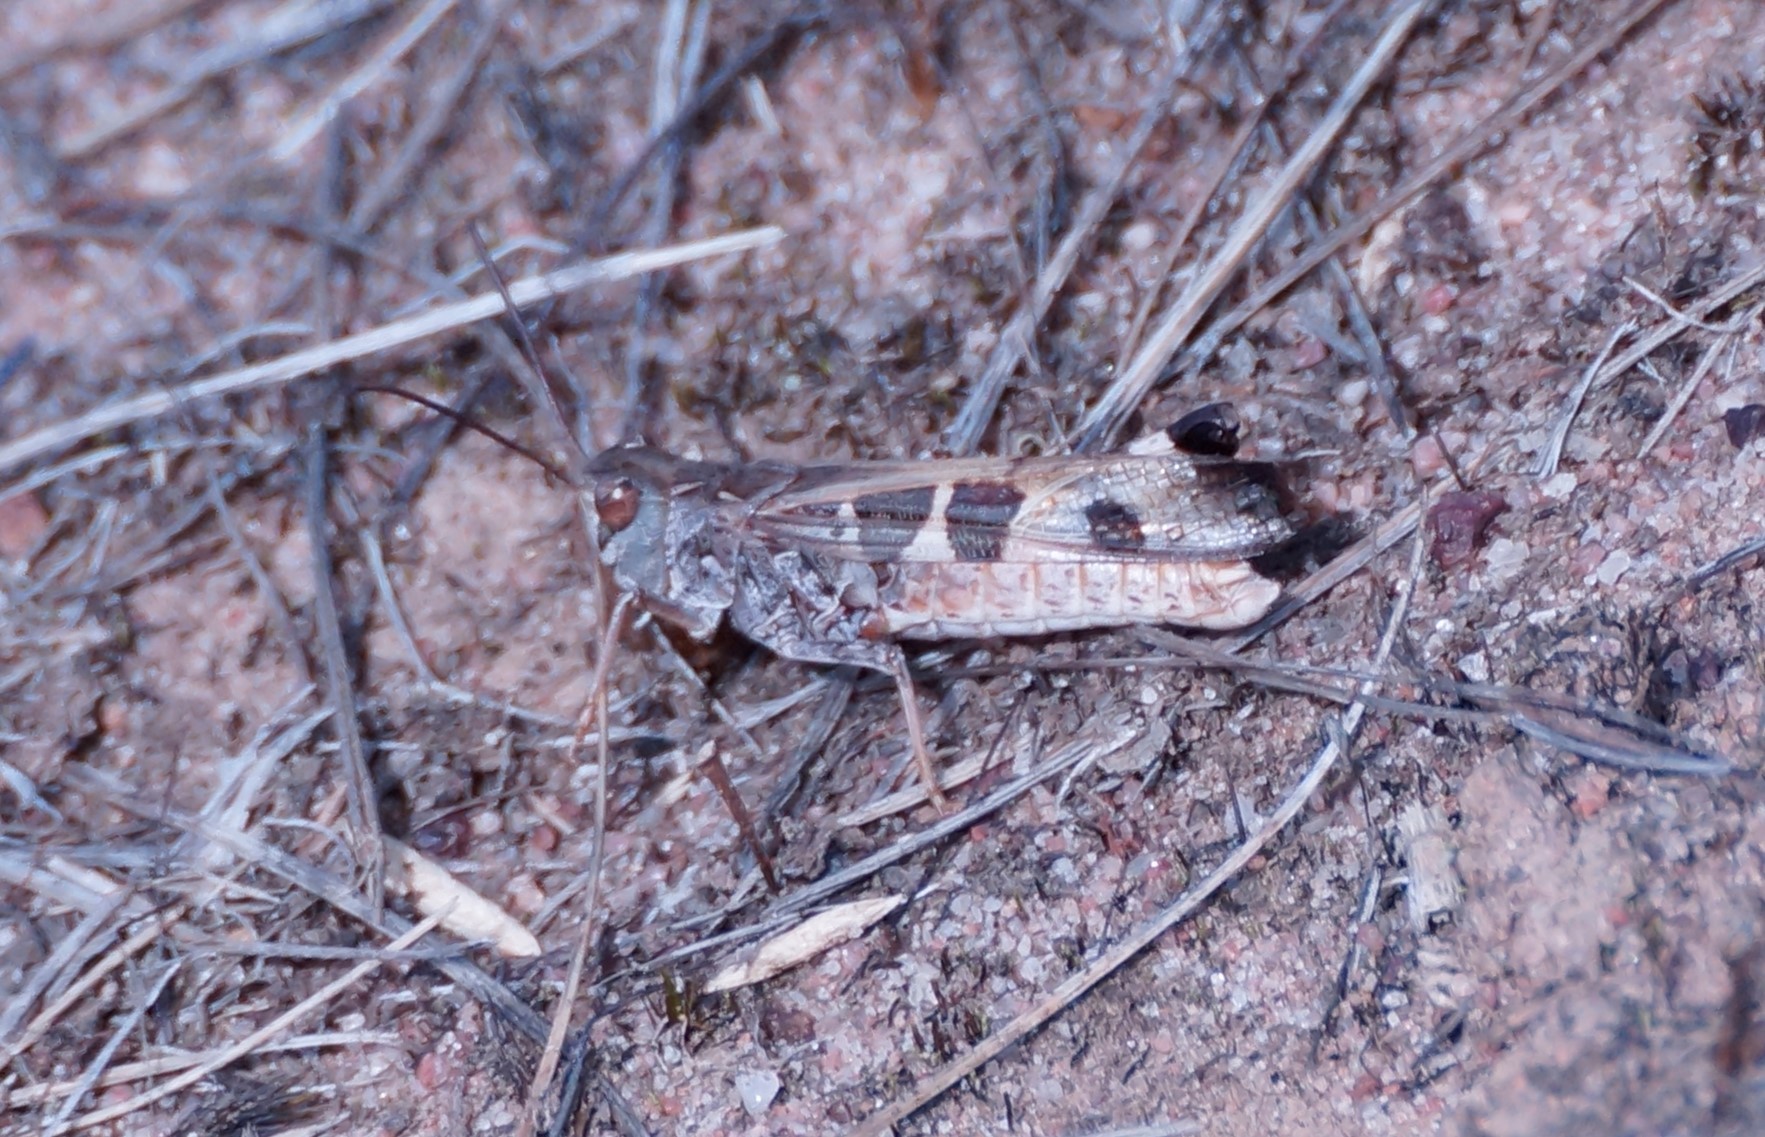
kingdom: Animalia
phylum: Arthropoda
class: Insecta
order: Orthoptera
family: Acrididae
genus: Oedaleus
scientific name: Oedaleus australis
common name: Eastern oedaleus
